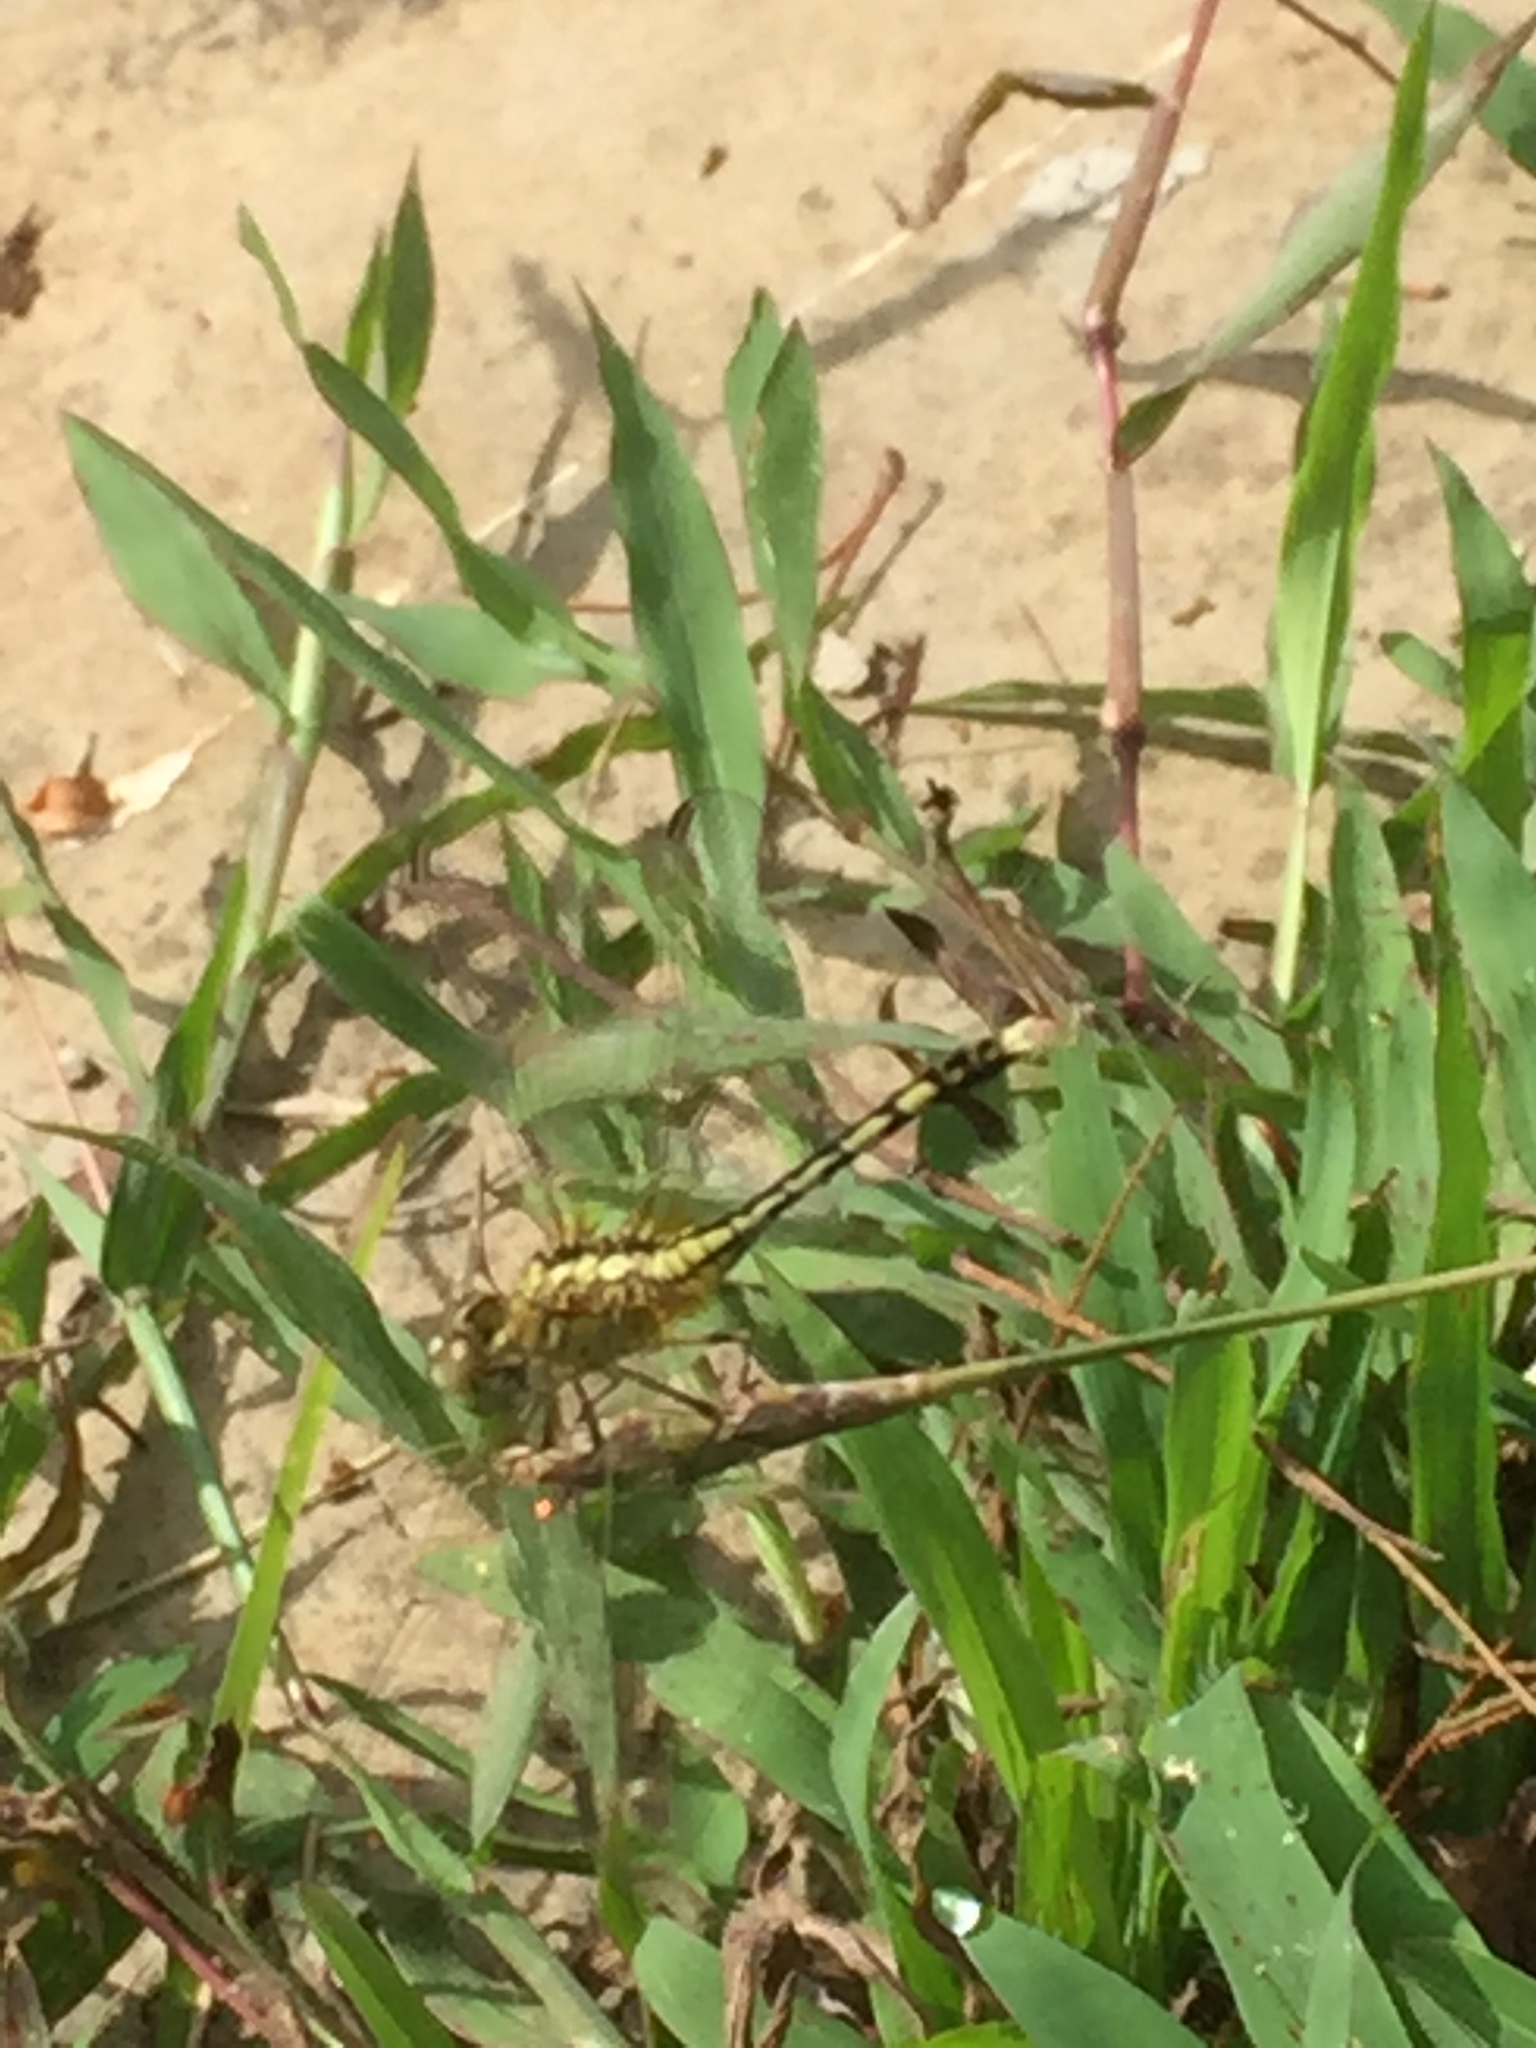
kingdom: Animalia
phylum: Arthropoda
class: Insecta
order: Odonata
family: Libellulidae
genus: Diplacodes
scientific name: Diplacodes trivialis
